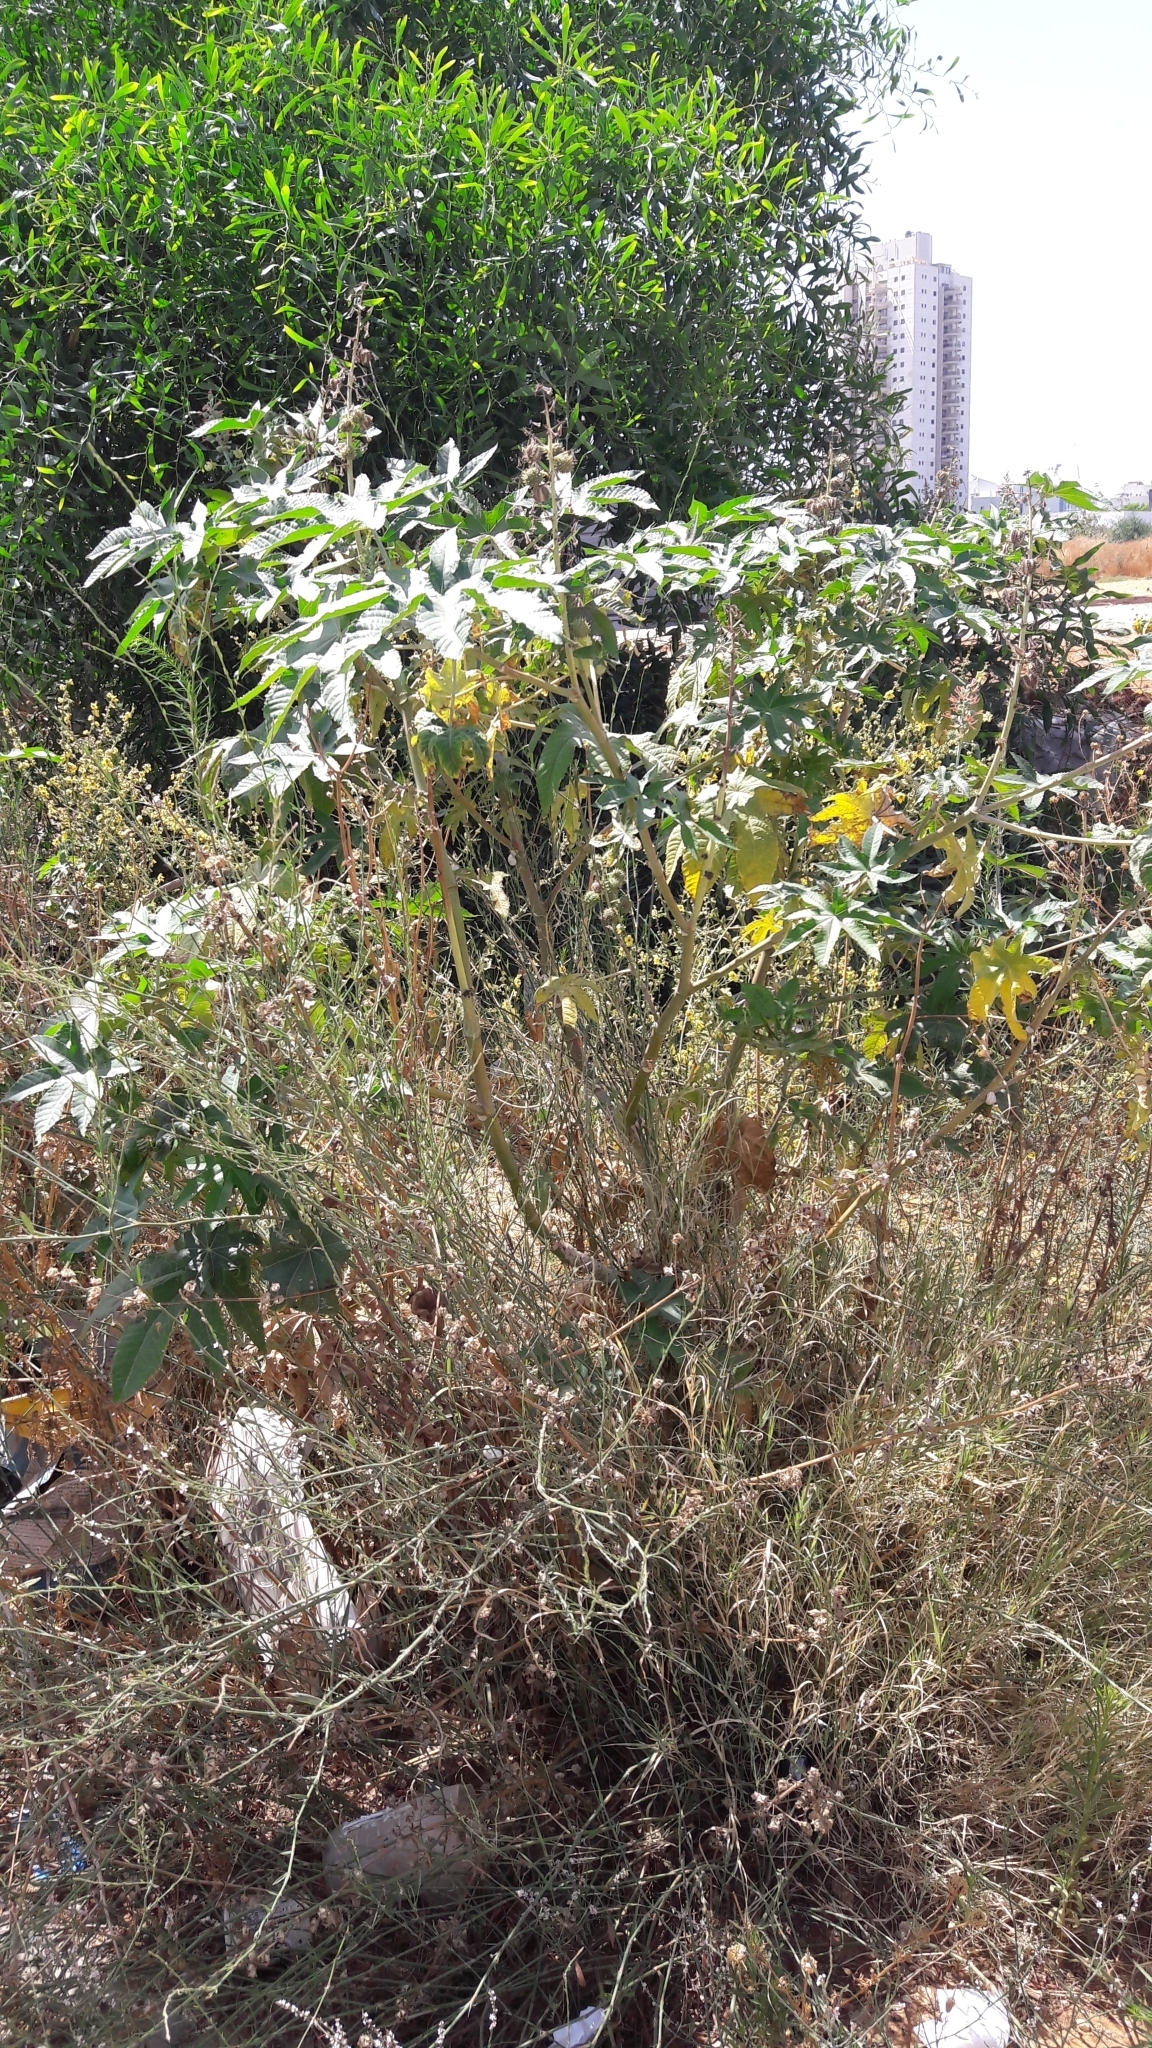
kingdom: Plantae
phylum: Tracheophyta
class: Magnoliopsida
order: Malpighiales
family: Euphorbiaceae
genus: Ricinus
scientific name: Ricinus communis
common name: Castor-oil-plant
